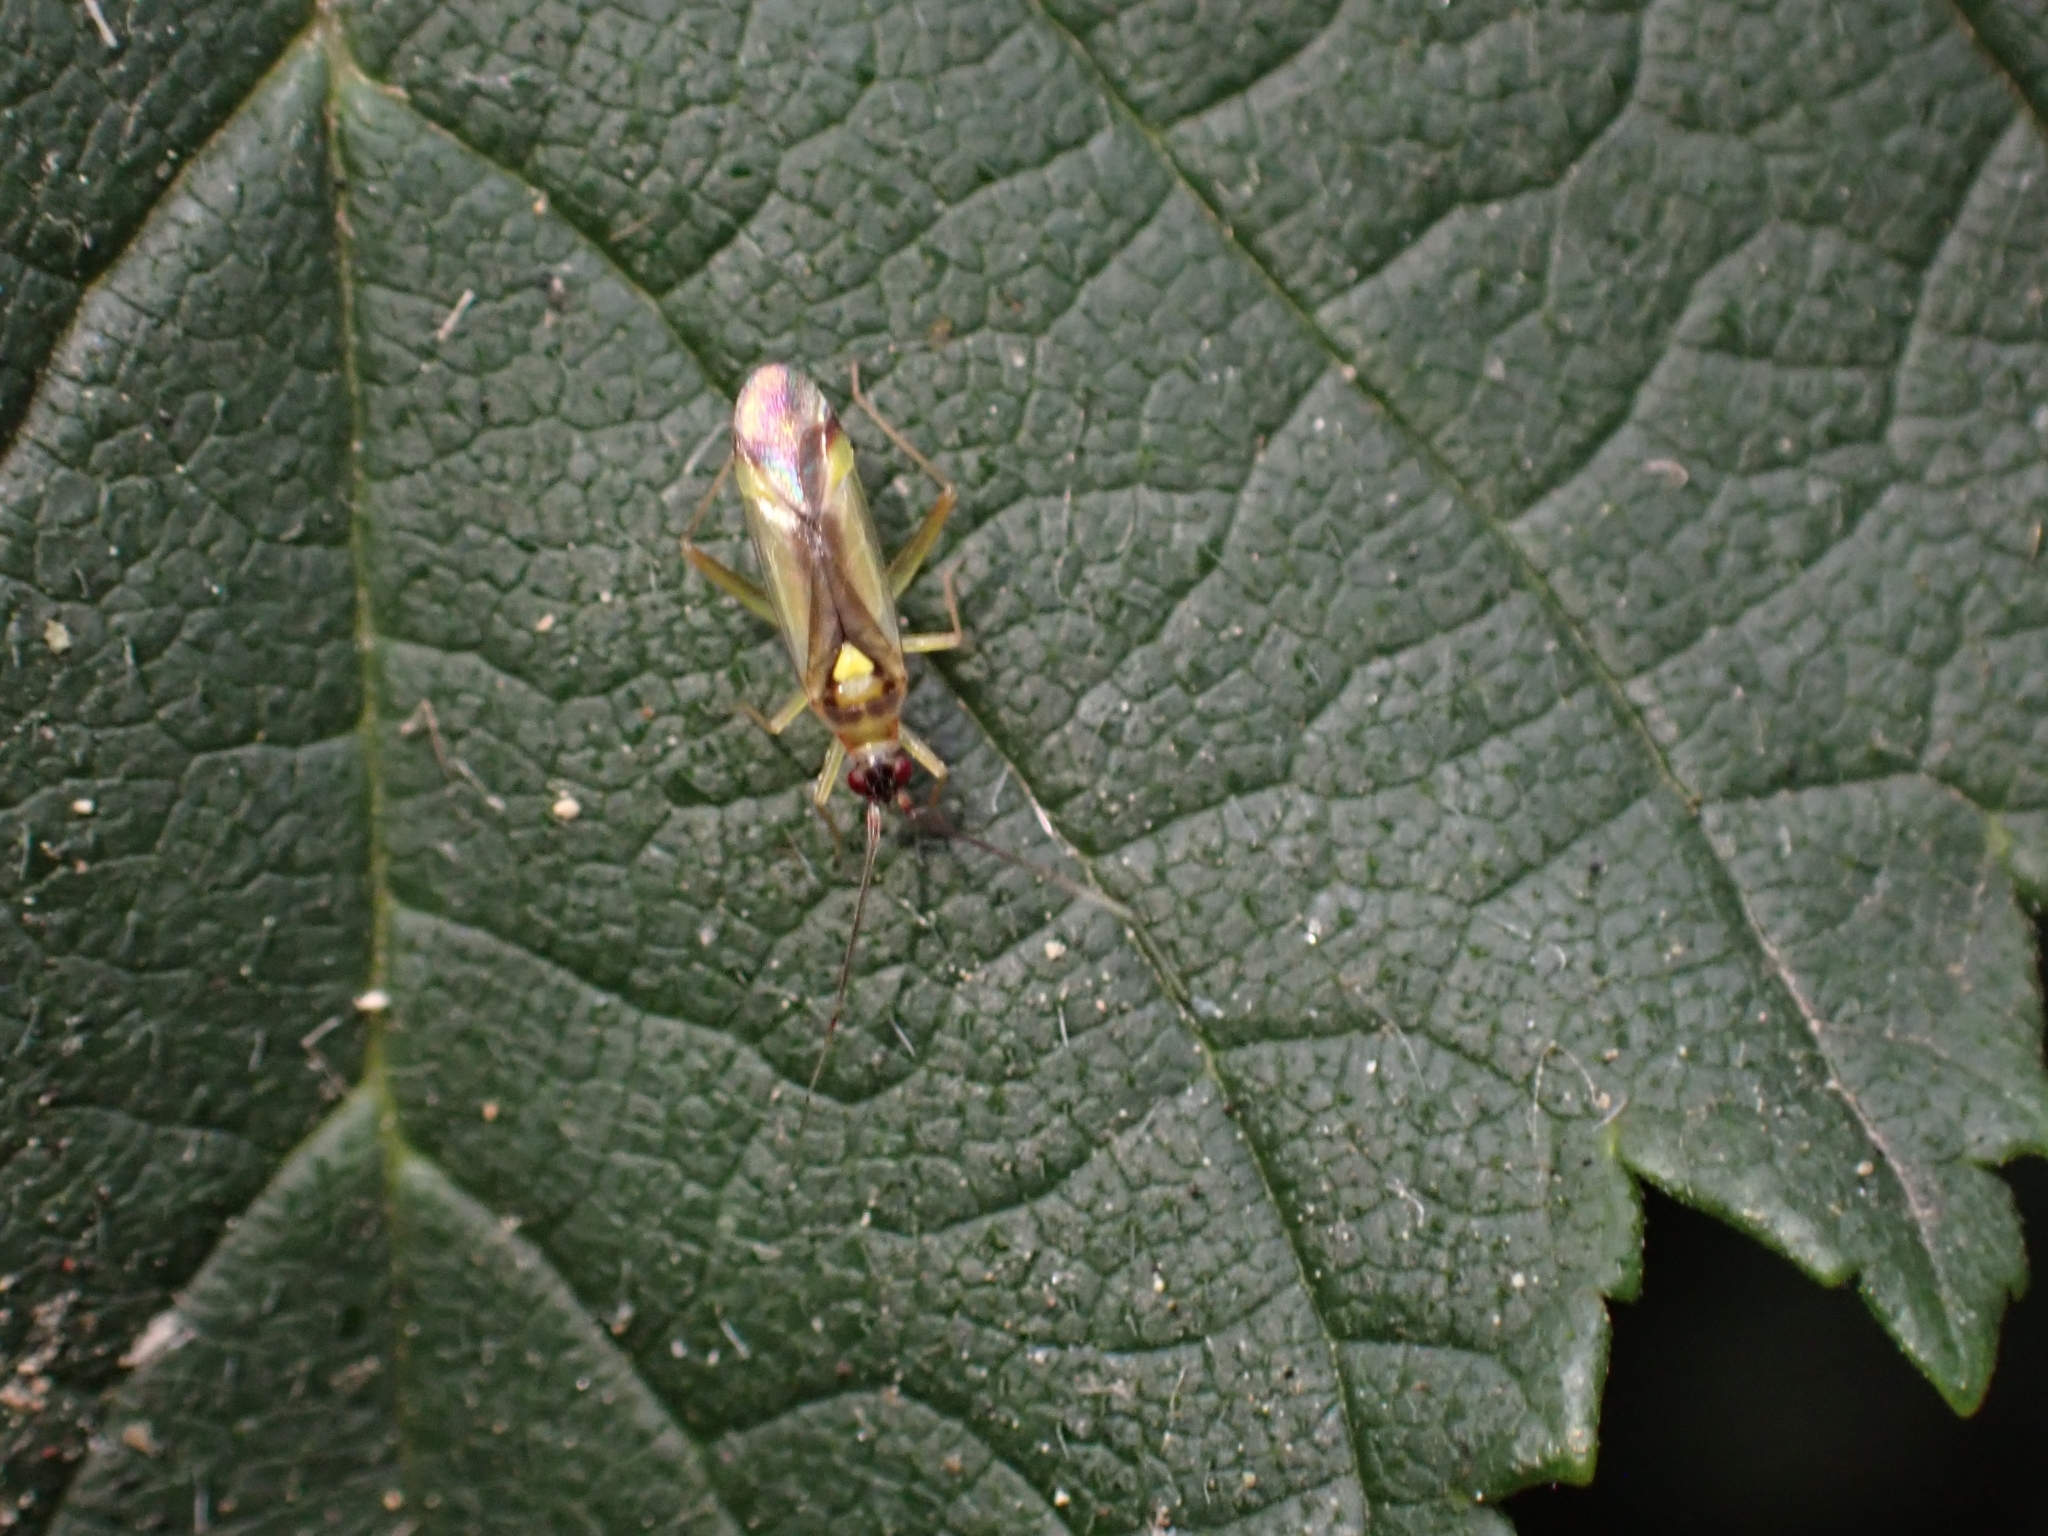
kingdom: Animalia
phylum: Arthropoda
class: Insecta
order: Hemiptera
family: Miridae
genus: Campyloneura
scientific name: Campyloneura virgula
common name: Predatory bug
